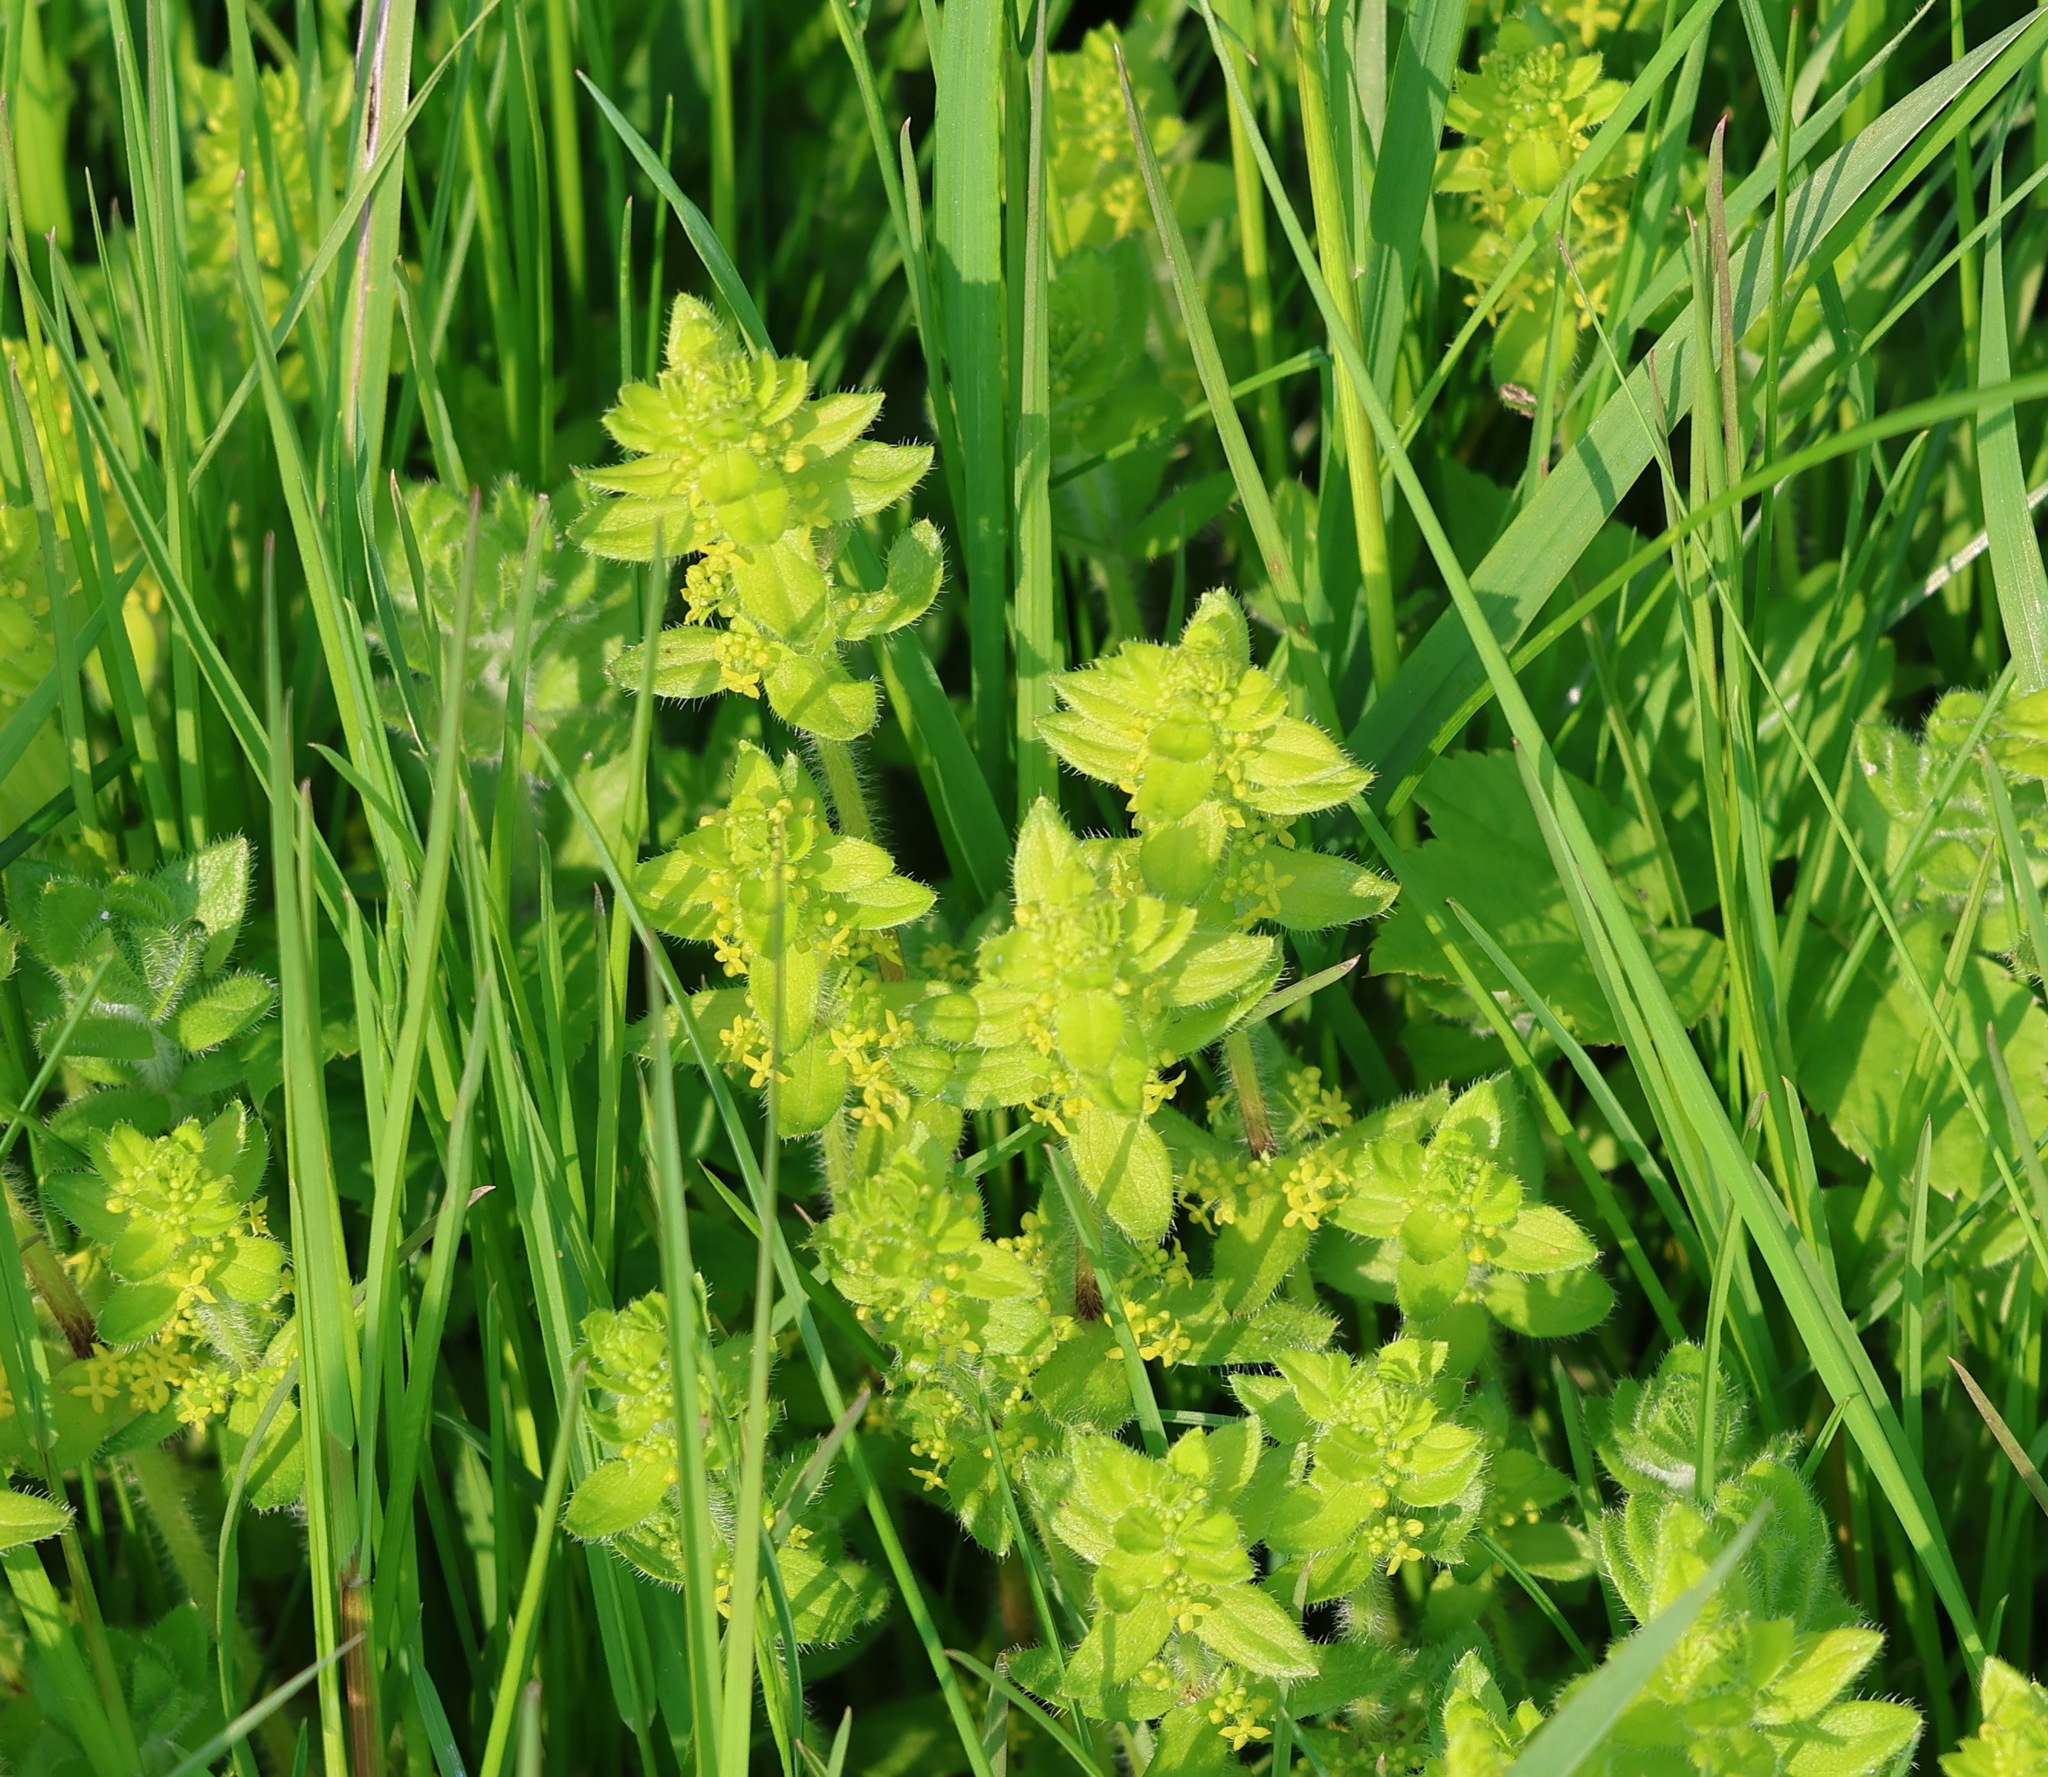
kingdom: Plantae
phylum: Tracheophyta
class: Magnoliopsida
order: Gentianales
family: Rubiaceae
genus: Cruciata
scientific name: Cruciata laevipes
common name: Crosswort
